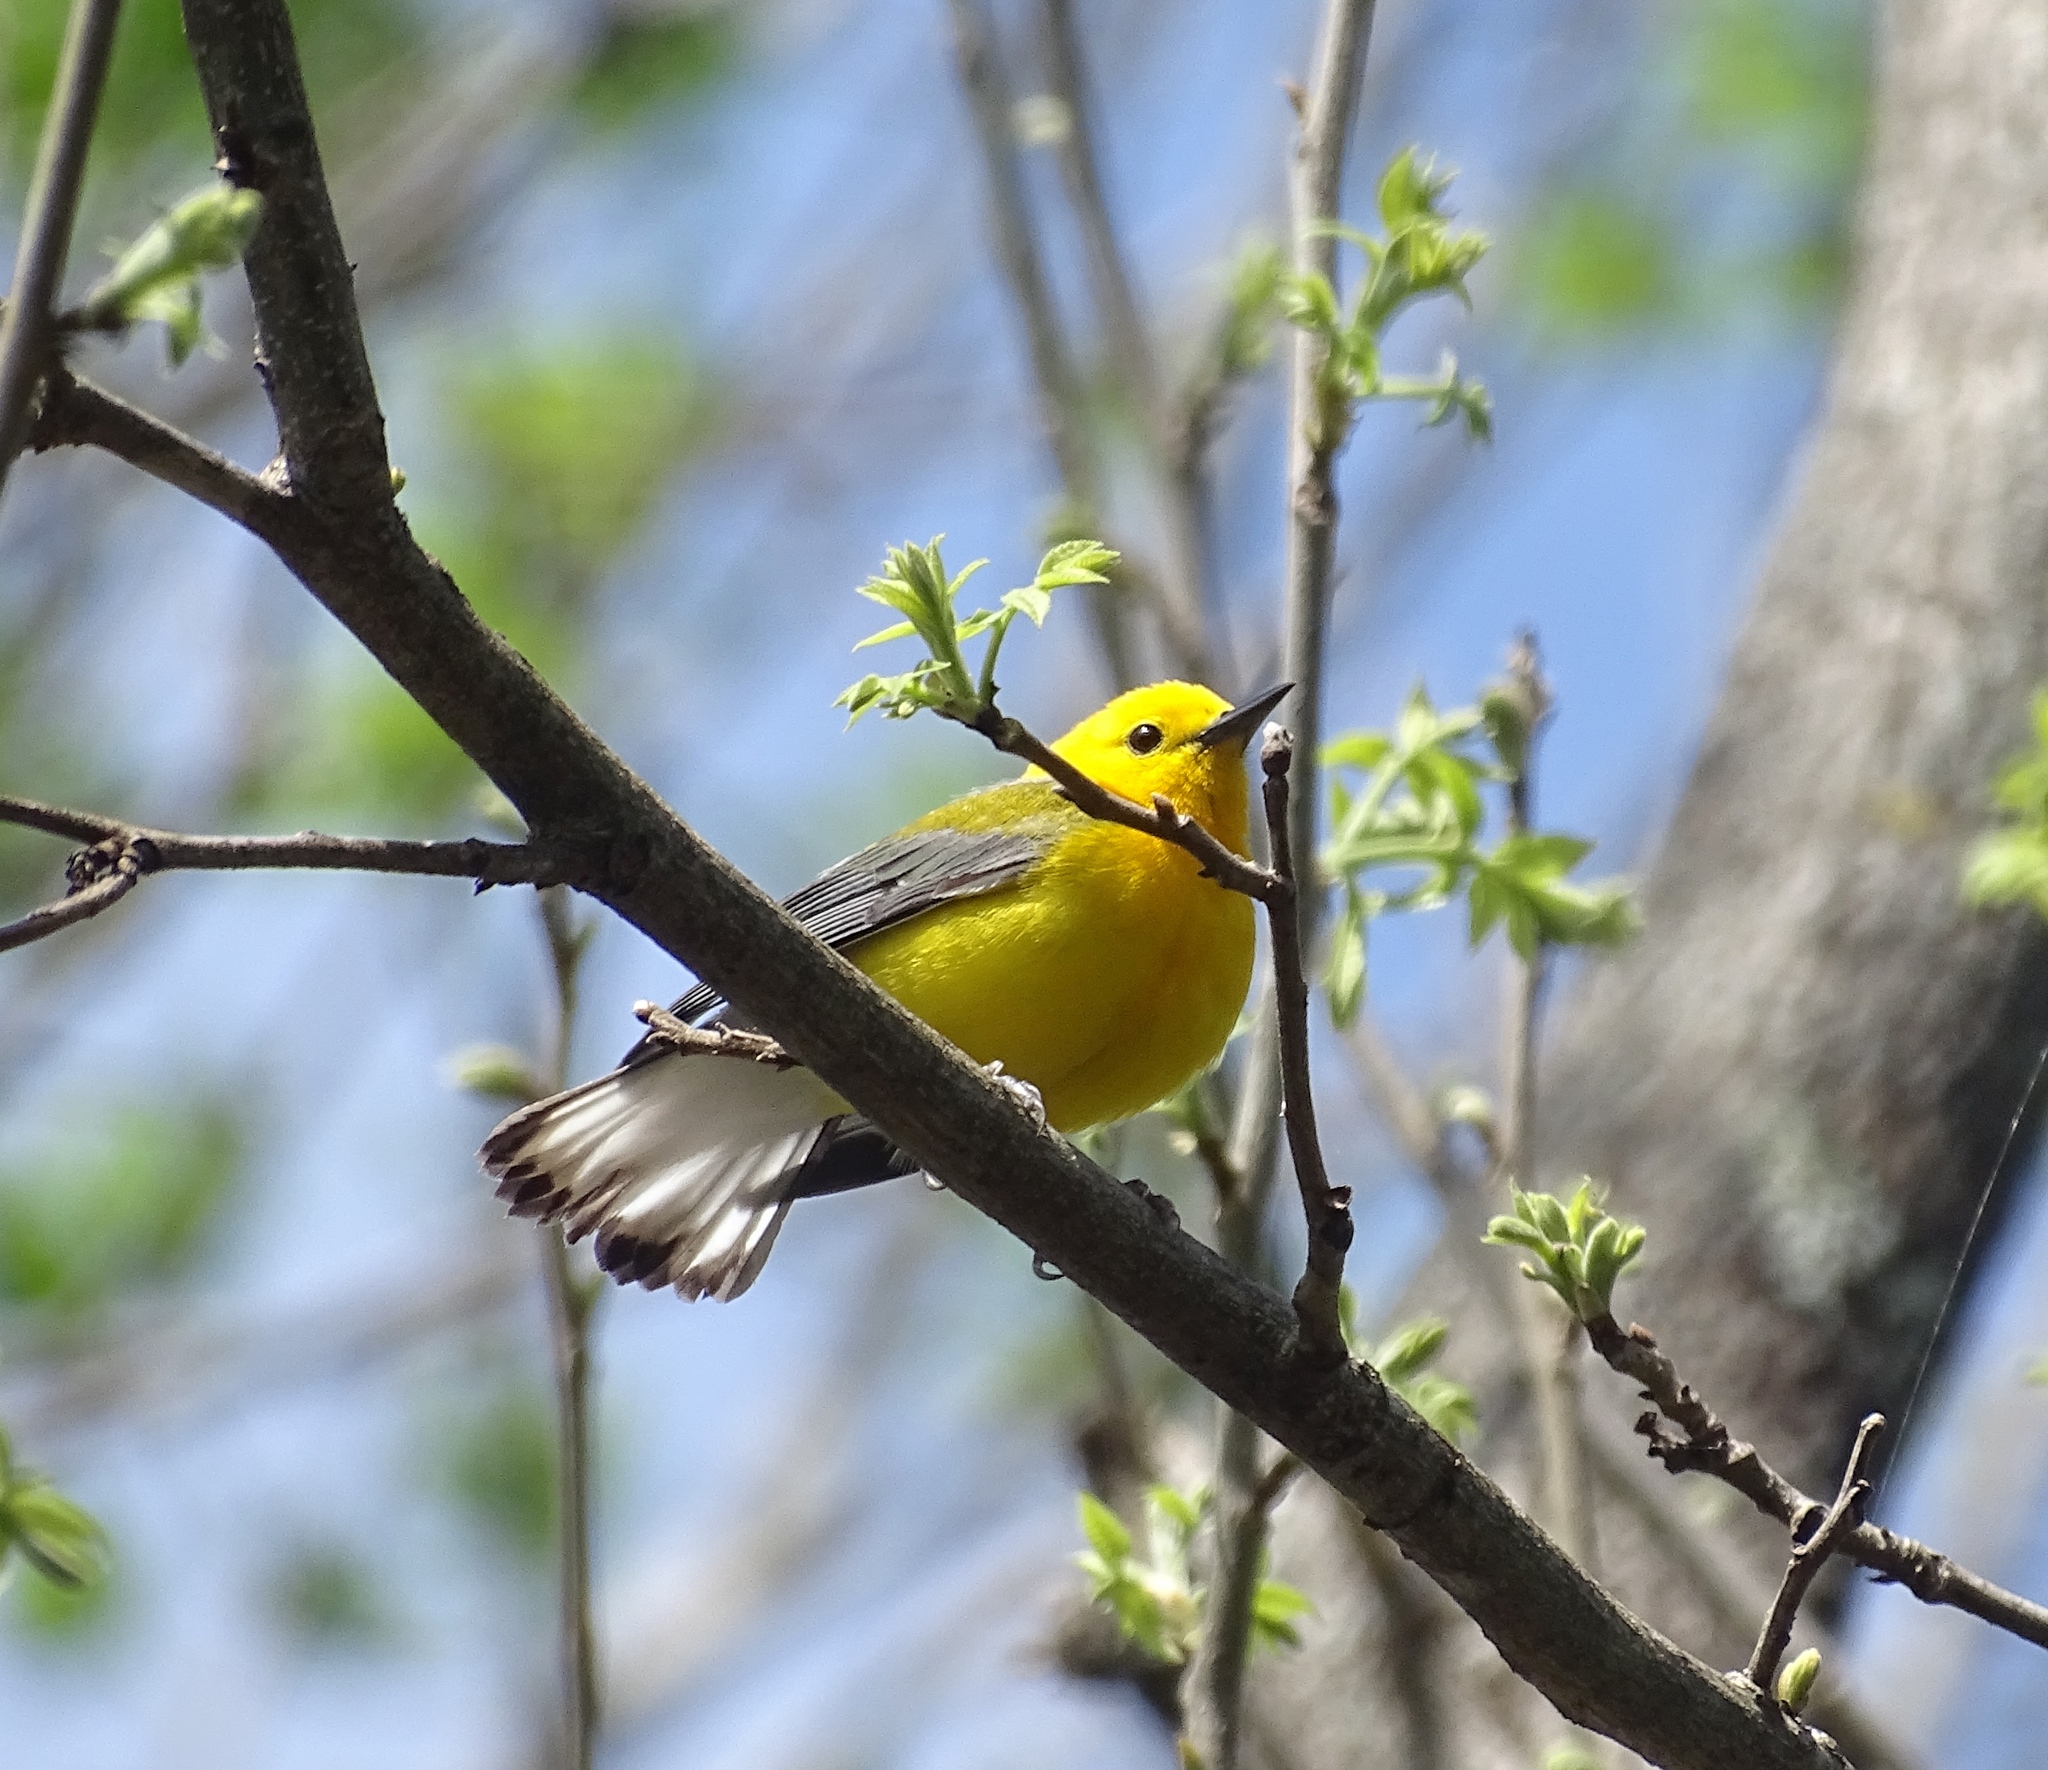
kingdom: Animalia
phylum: Chordata
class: Aves
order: Passeriformes
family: Parulidae
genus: Protonotaria
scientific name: Protonotaria citrea
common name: Prothonotary warbler
